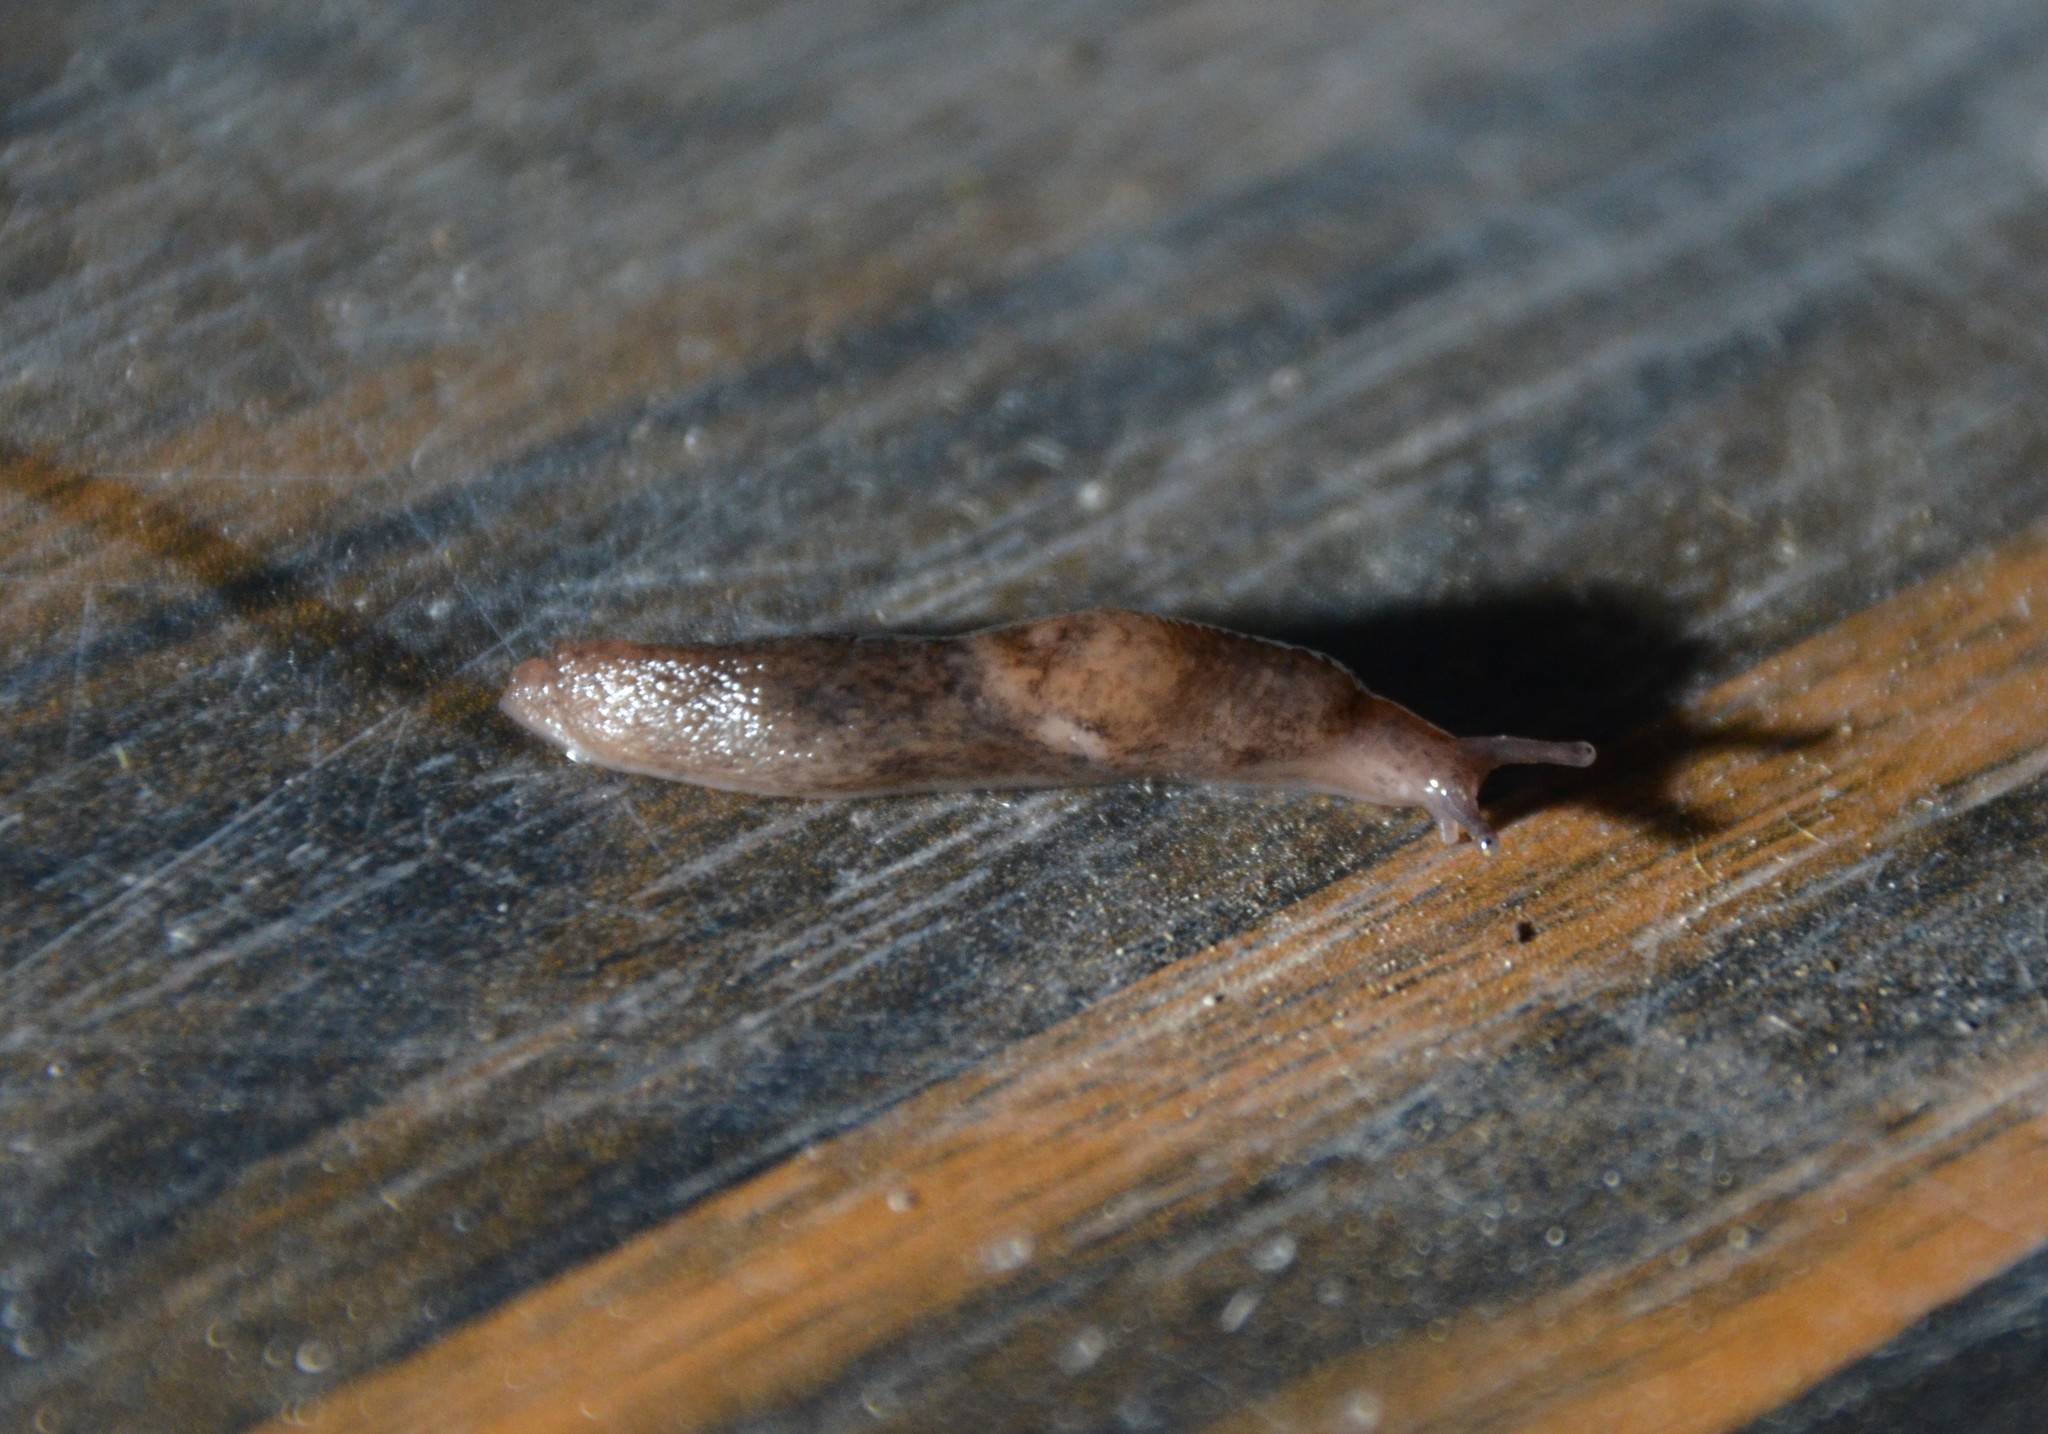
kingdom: Animalia
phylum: Mollusca
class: Gastropoda
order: Stylommatophora
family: Agriolimacidae
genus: Deroceras
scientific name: Deroceras reticulatum
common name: Gray field slug
